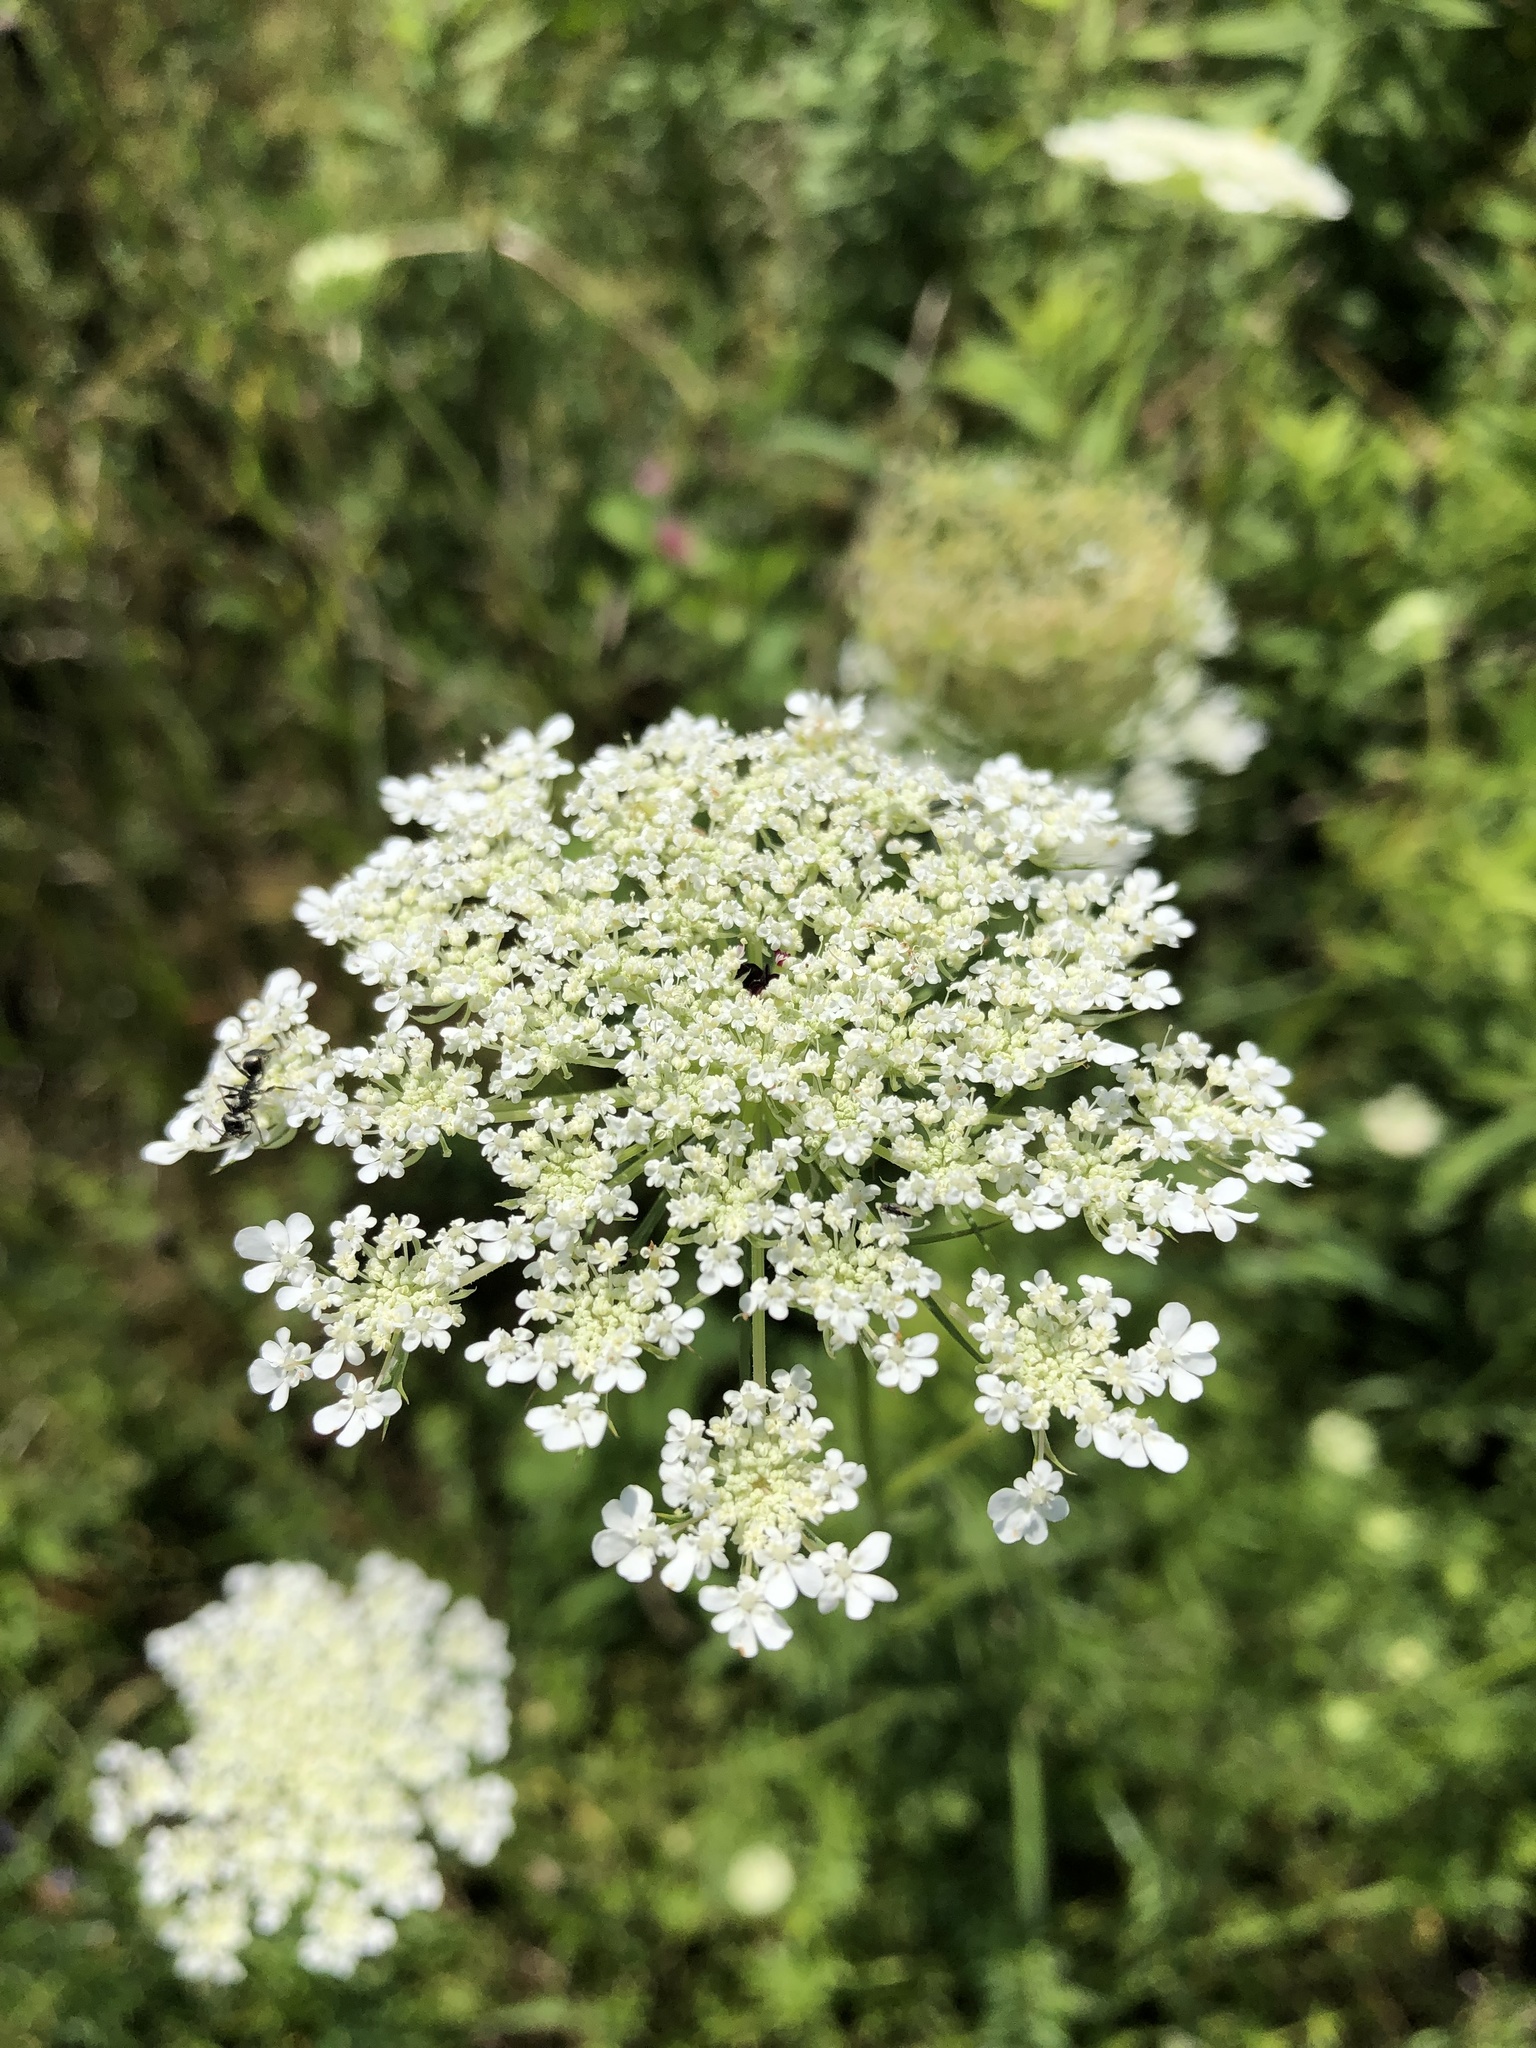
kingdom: Plantae
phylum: Tracheophyta
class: Magnoliopsida
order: Apiales
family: Apiaceae
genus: Daucus
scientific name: Daucus carota
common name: Wild carrot
